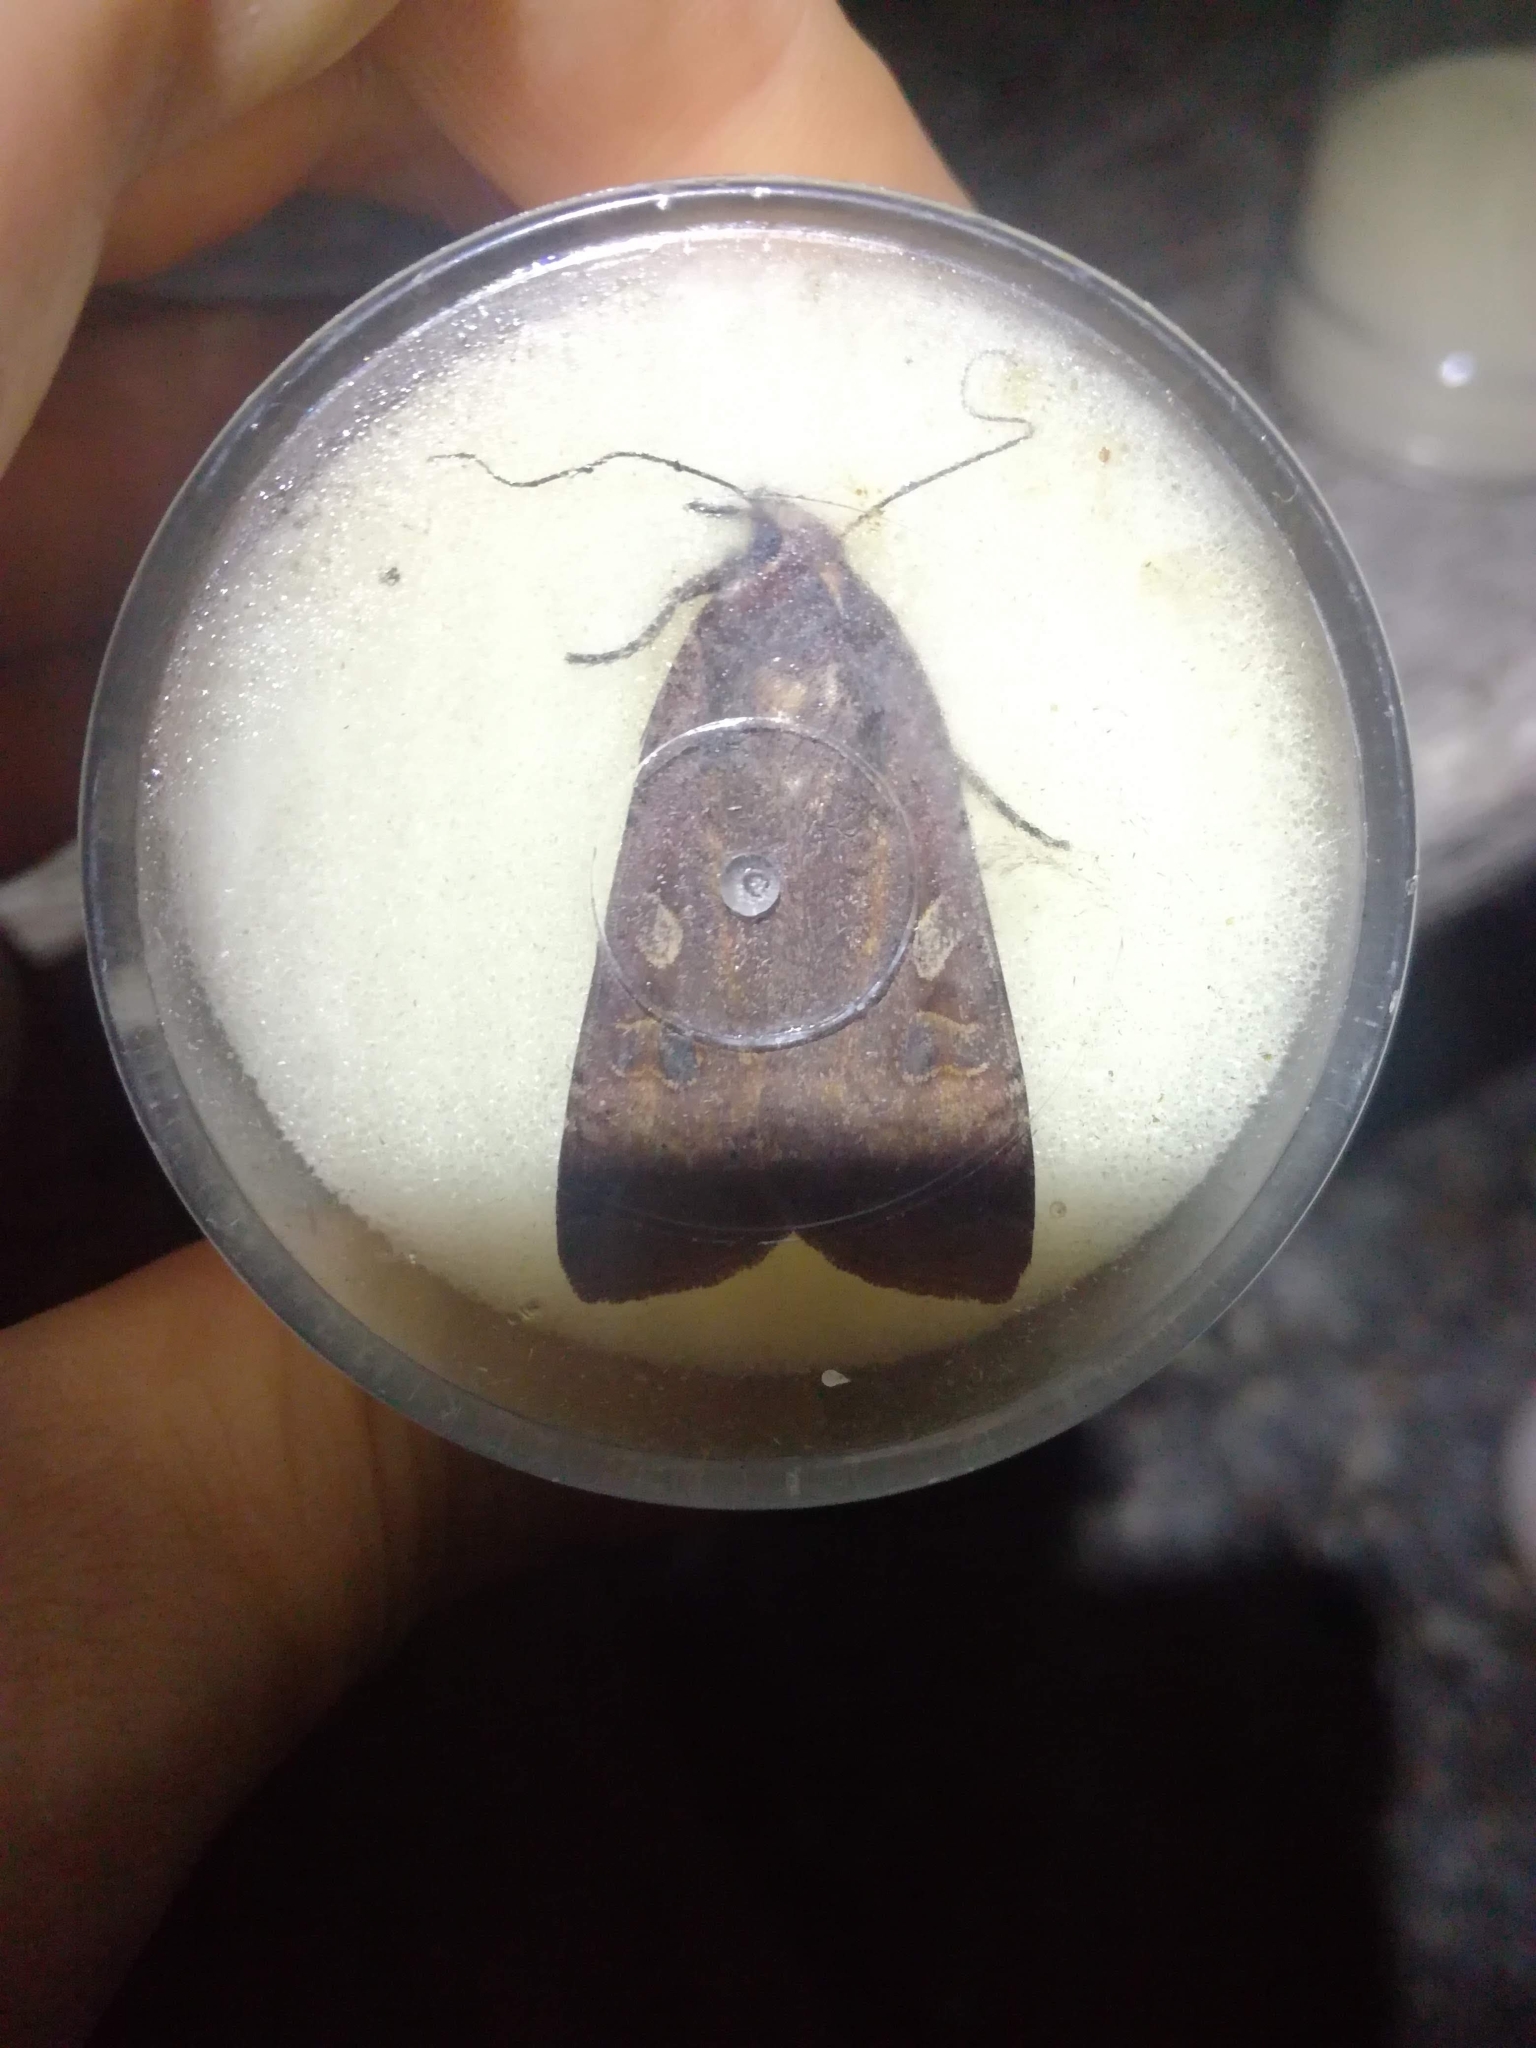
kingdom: Animalia
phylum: Arthropoda
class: Insecta
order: Lepidoptera
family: Noctuidae
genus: Noctua
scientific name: Noctua pronuba
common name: Large yellow underwing
